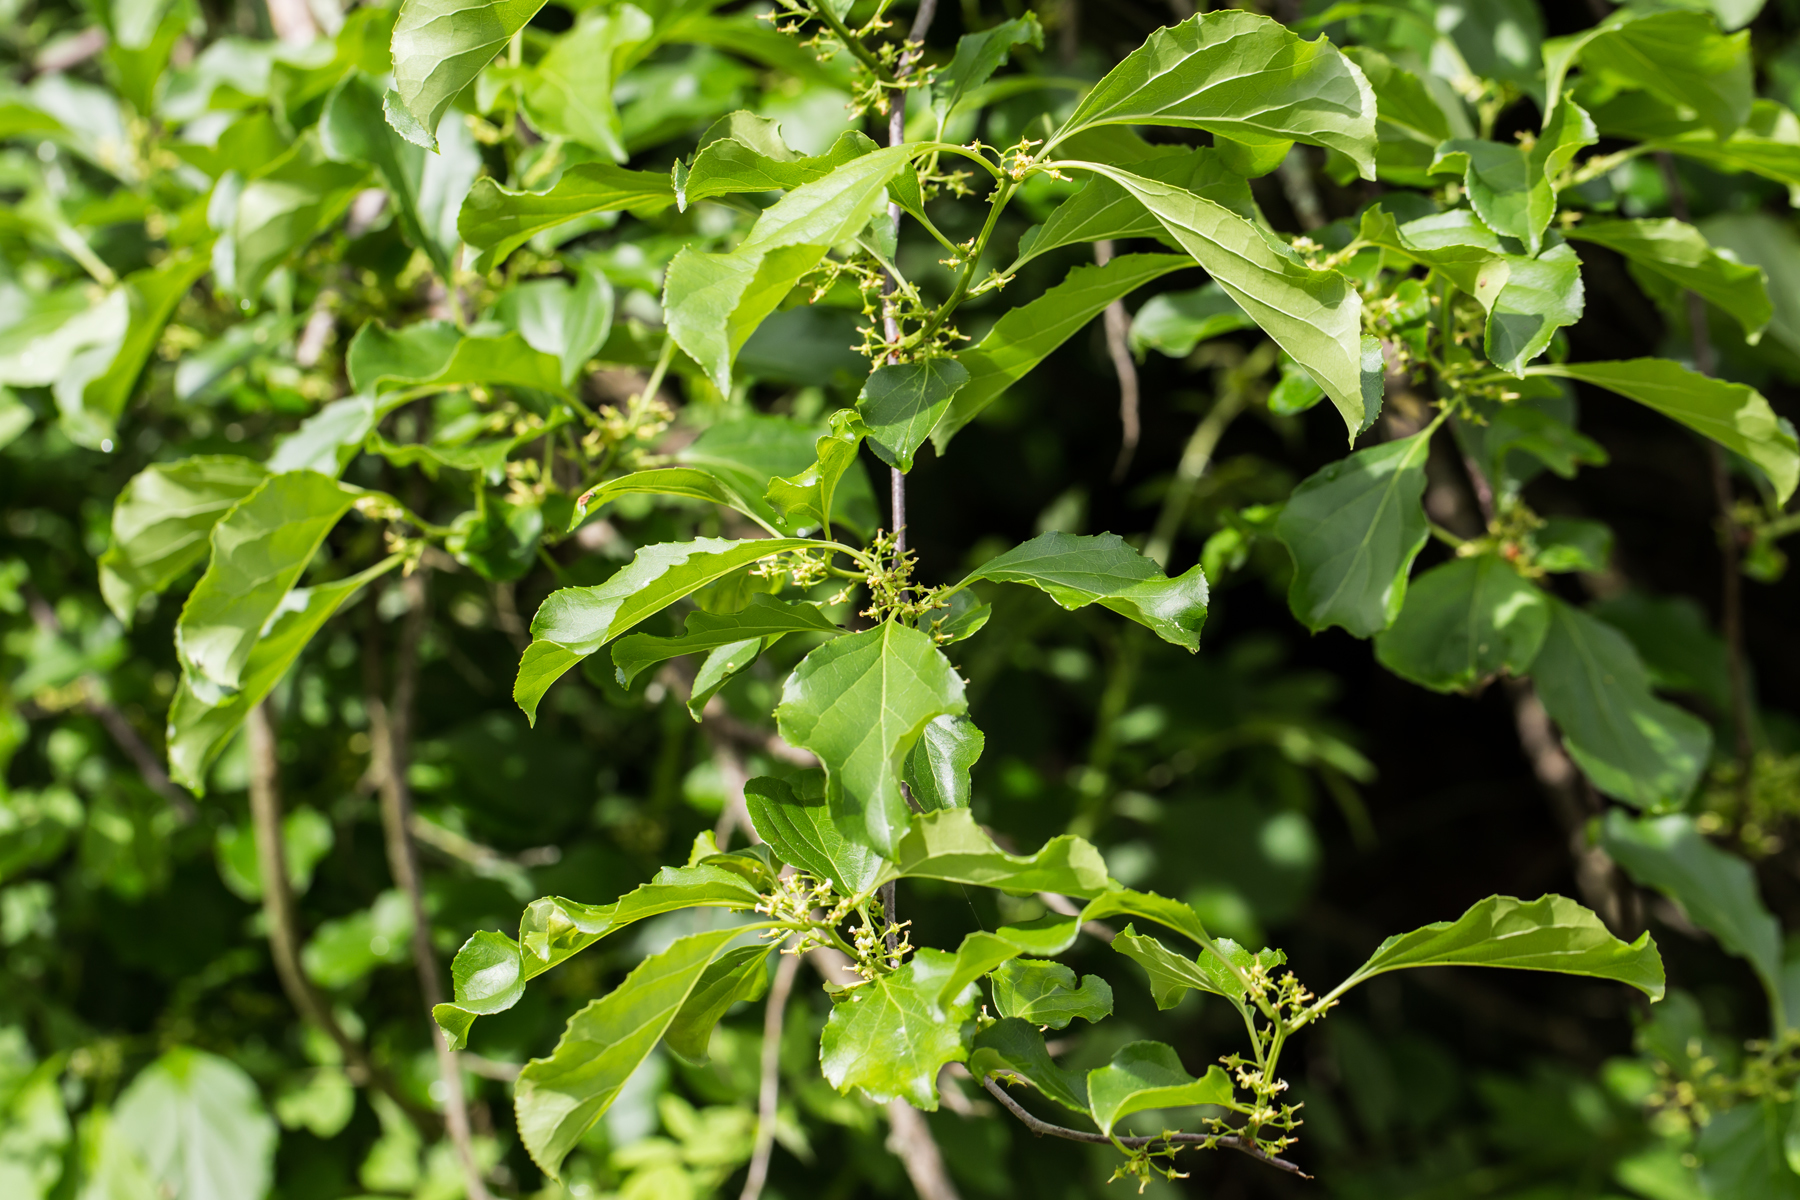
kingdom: Plantae
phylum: Tracheophyta
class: Magnoliopsida
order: Celastrales
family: Celastraceae
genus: Celastrus
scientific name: Celastrus orbiculatus
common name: Oriental bittersweet
